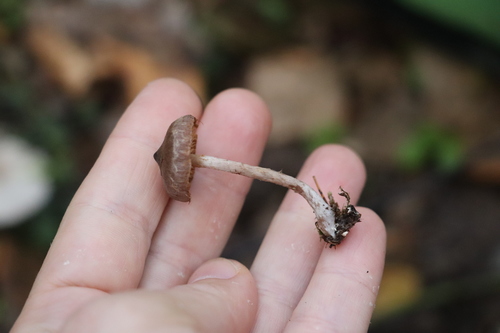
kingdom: Fungi
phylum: Basidiomycota
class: Agaricomycetes
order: Agaricales
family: Cortinariaceae
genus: Cortinarius
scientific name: Cortinarius
